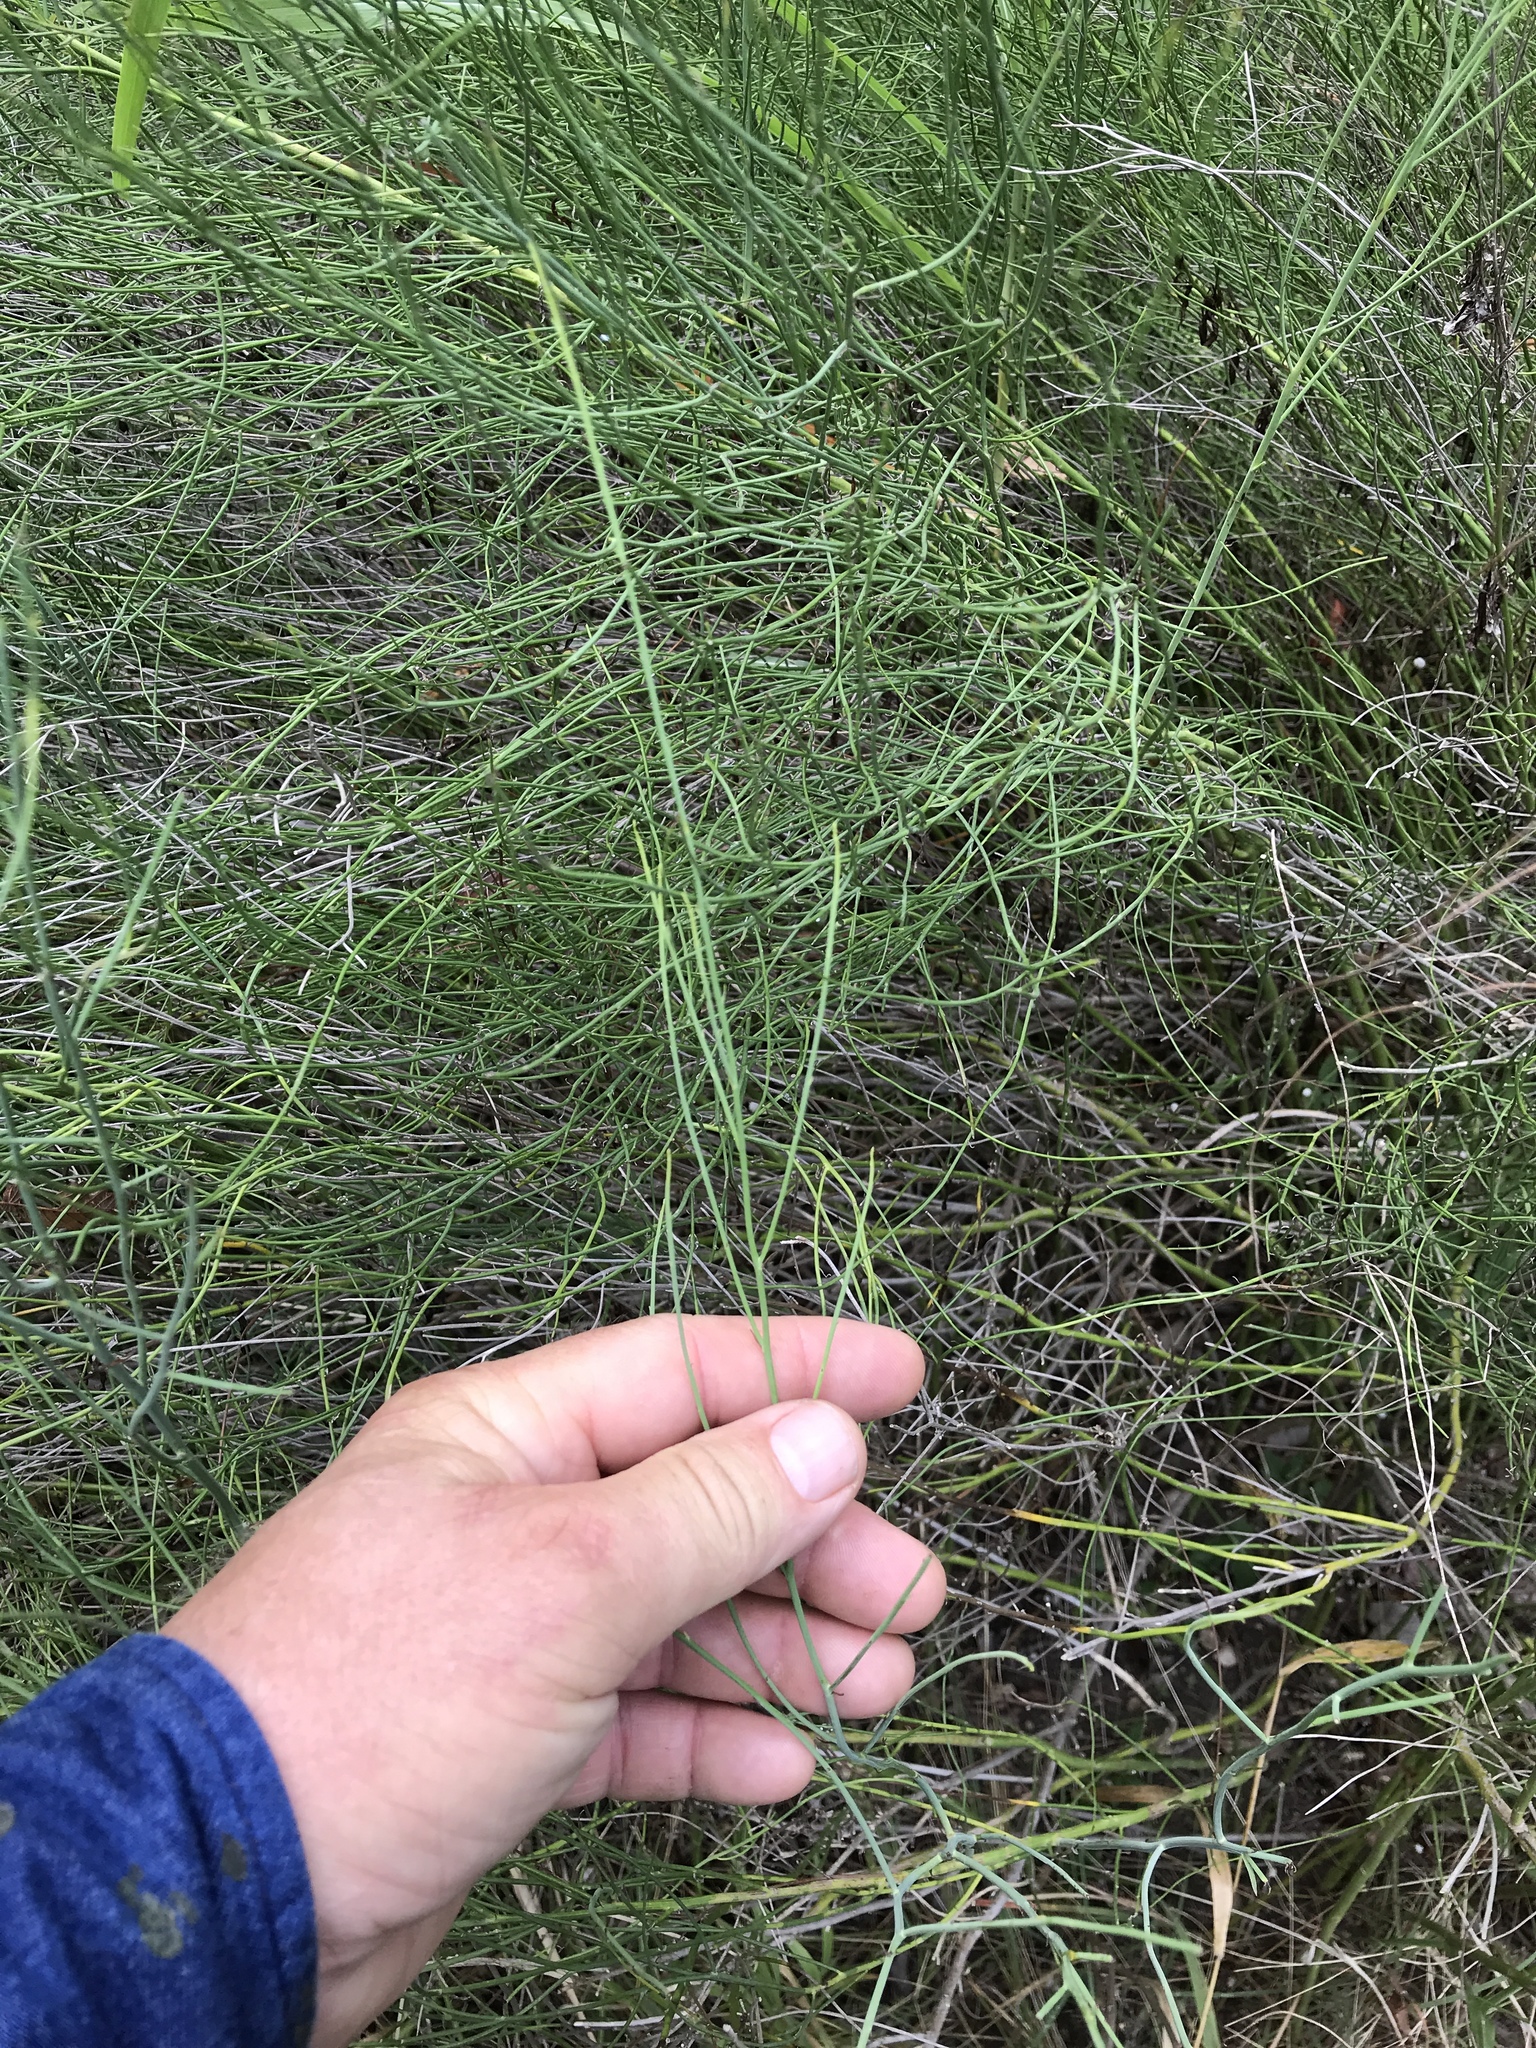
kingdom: Plantae
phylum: Tracheophyta
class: Magnoliopsida
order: Asterales
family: Asteraceae
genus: Chloracantha
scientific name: Chloracantha spinosa
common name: Mexican devilweed
